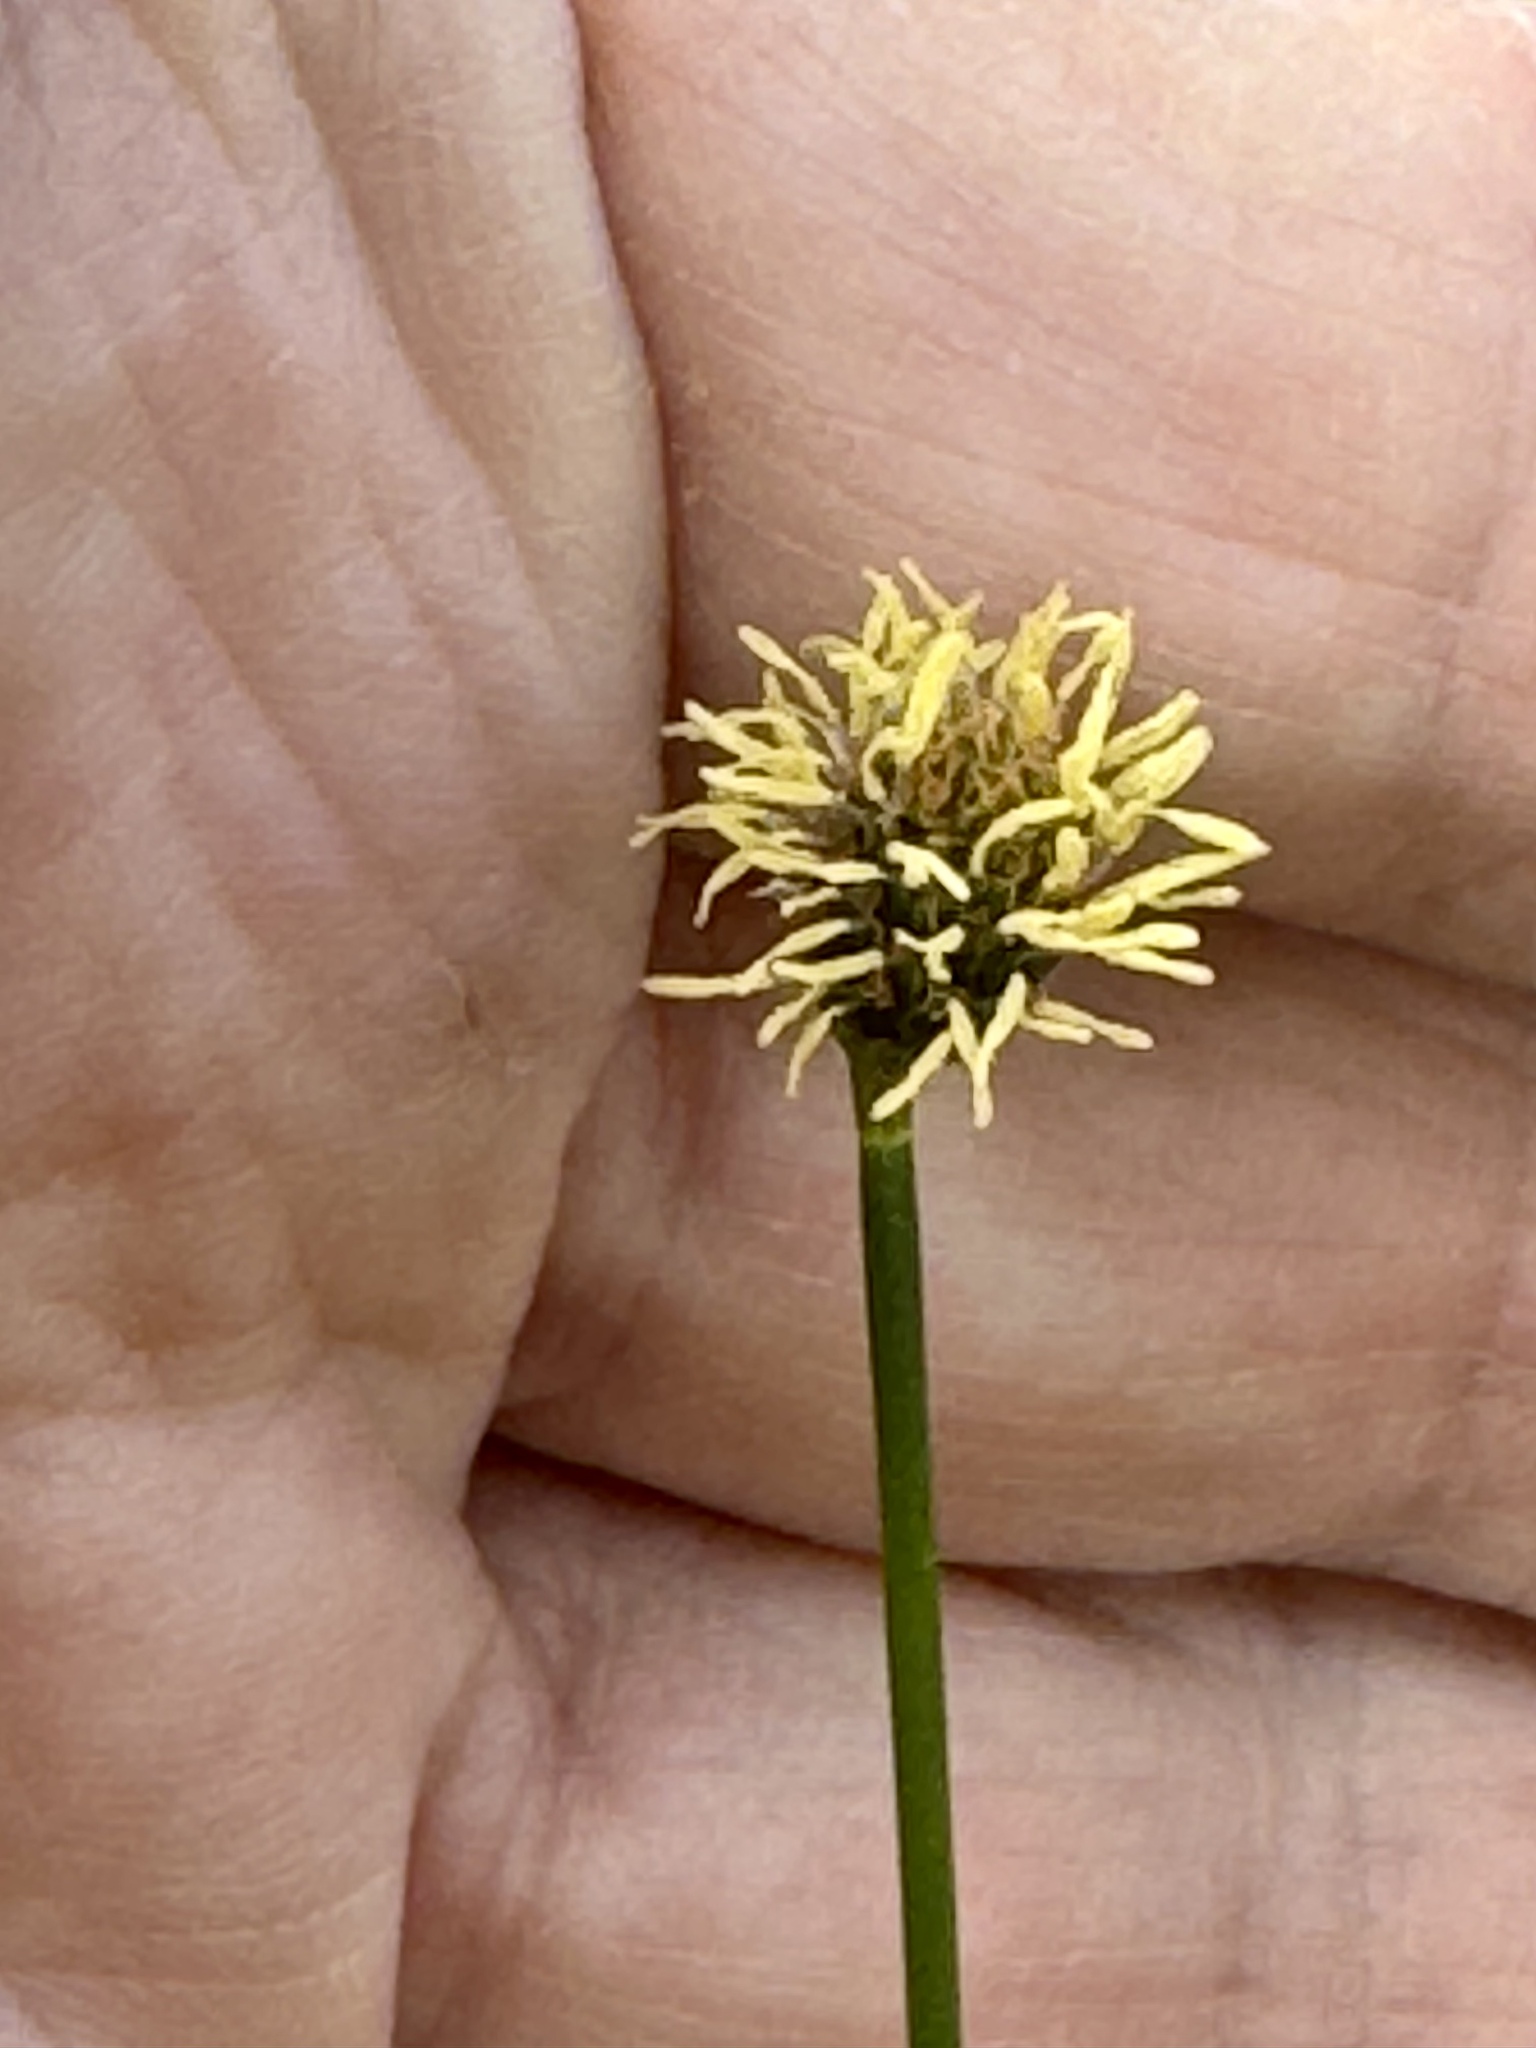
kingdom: Plantae
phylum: Tracheophyta
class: Liliopsida
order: Poales
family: Cyperaceae
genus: Fuirena
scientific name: Fuirena scirpoidea
